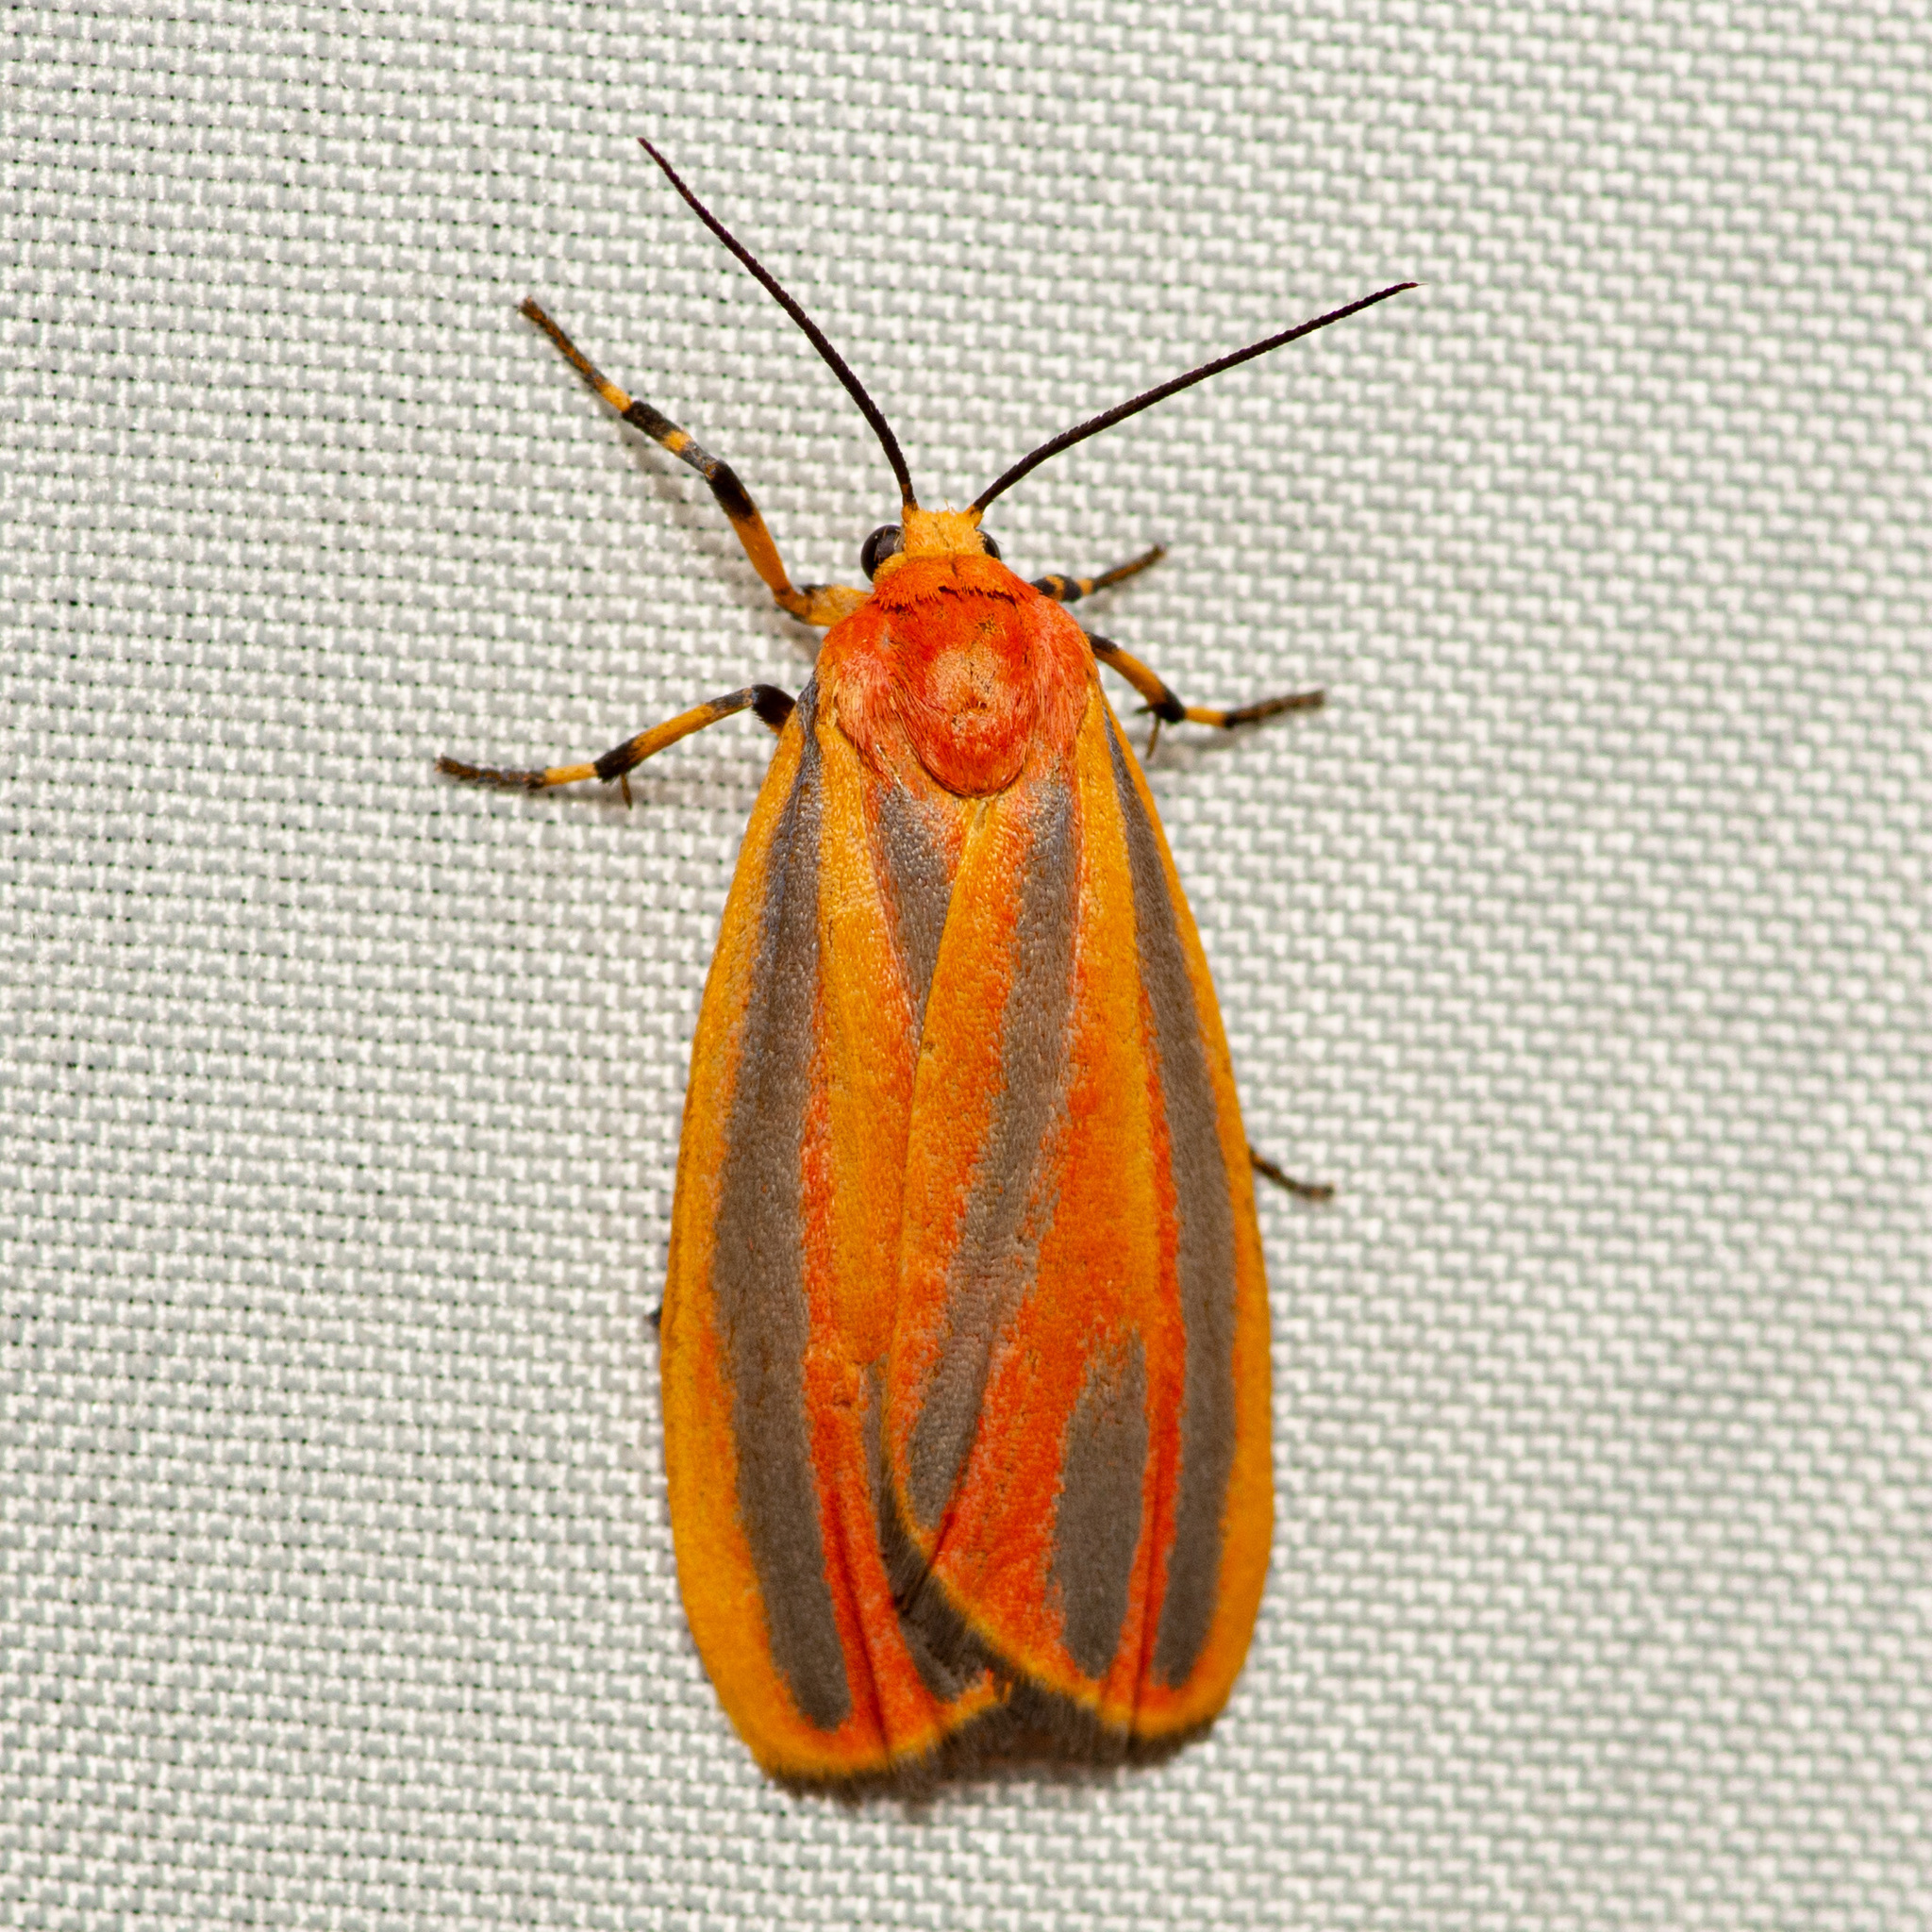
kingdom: Animalia
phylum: Arthropoda
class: Insecta
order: Lepidoptera
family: Erebidae
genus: Hypoprepia
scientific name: Hypoprepia fucosa
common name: Painted lichen moth
